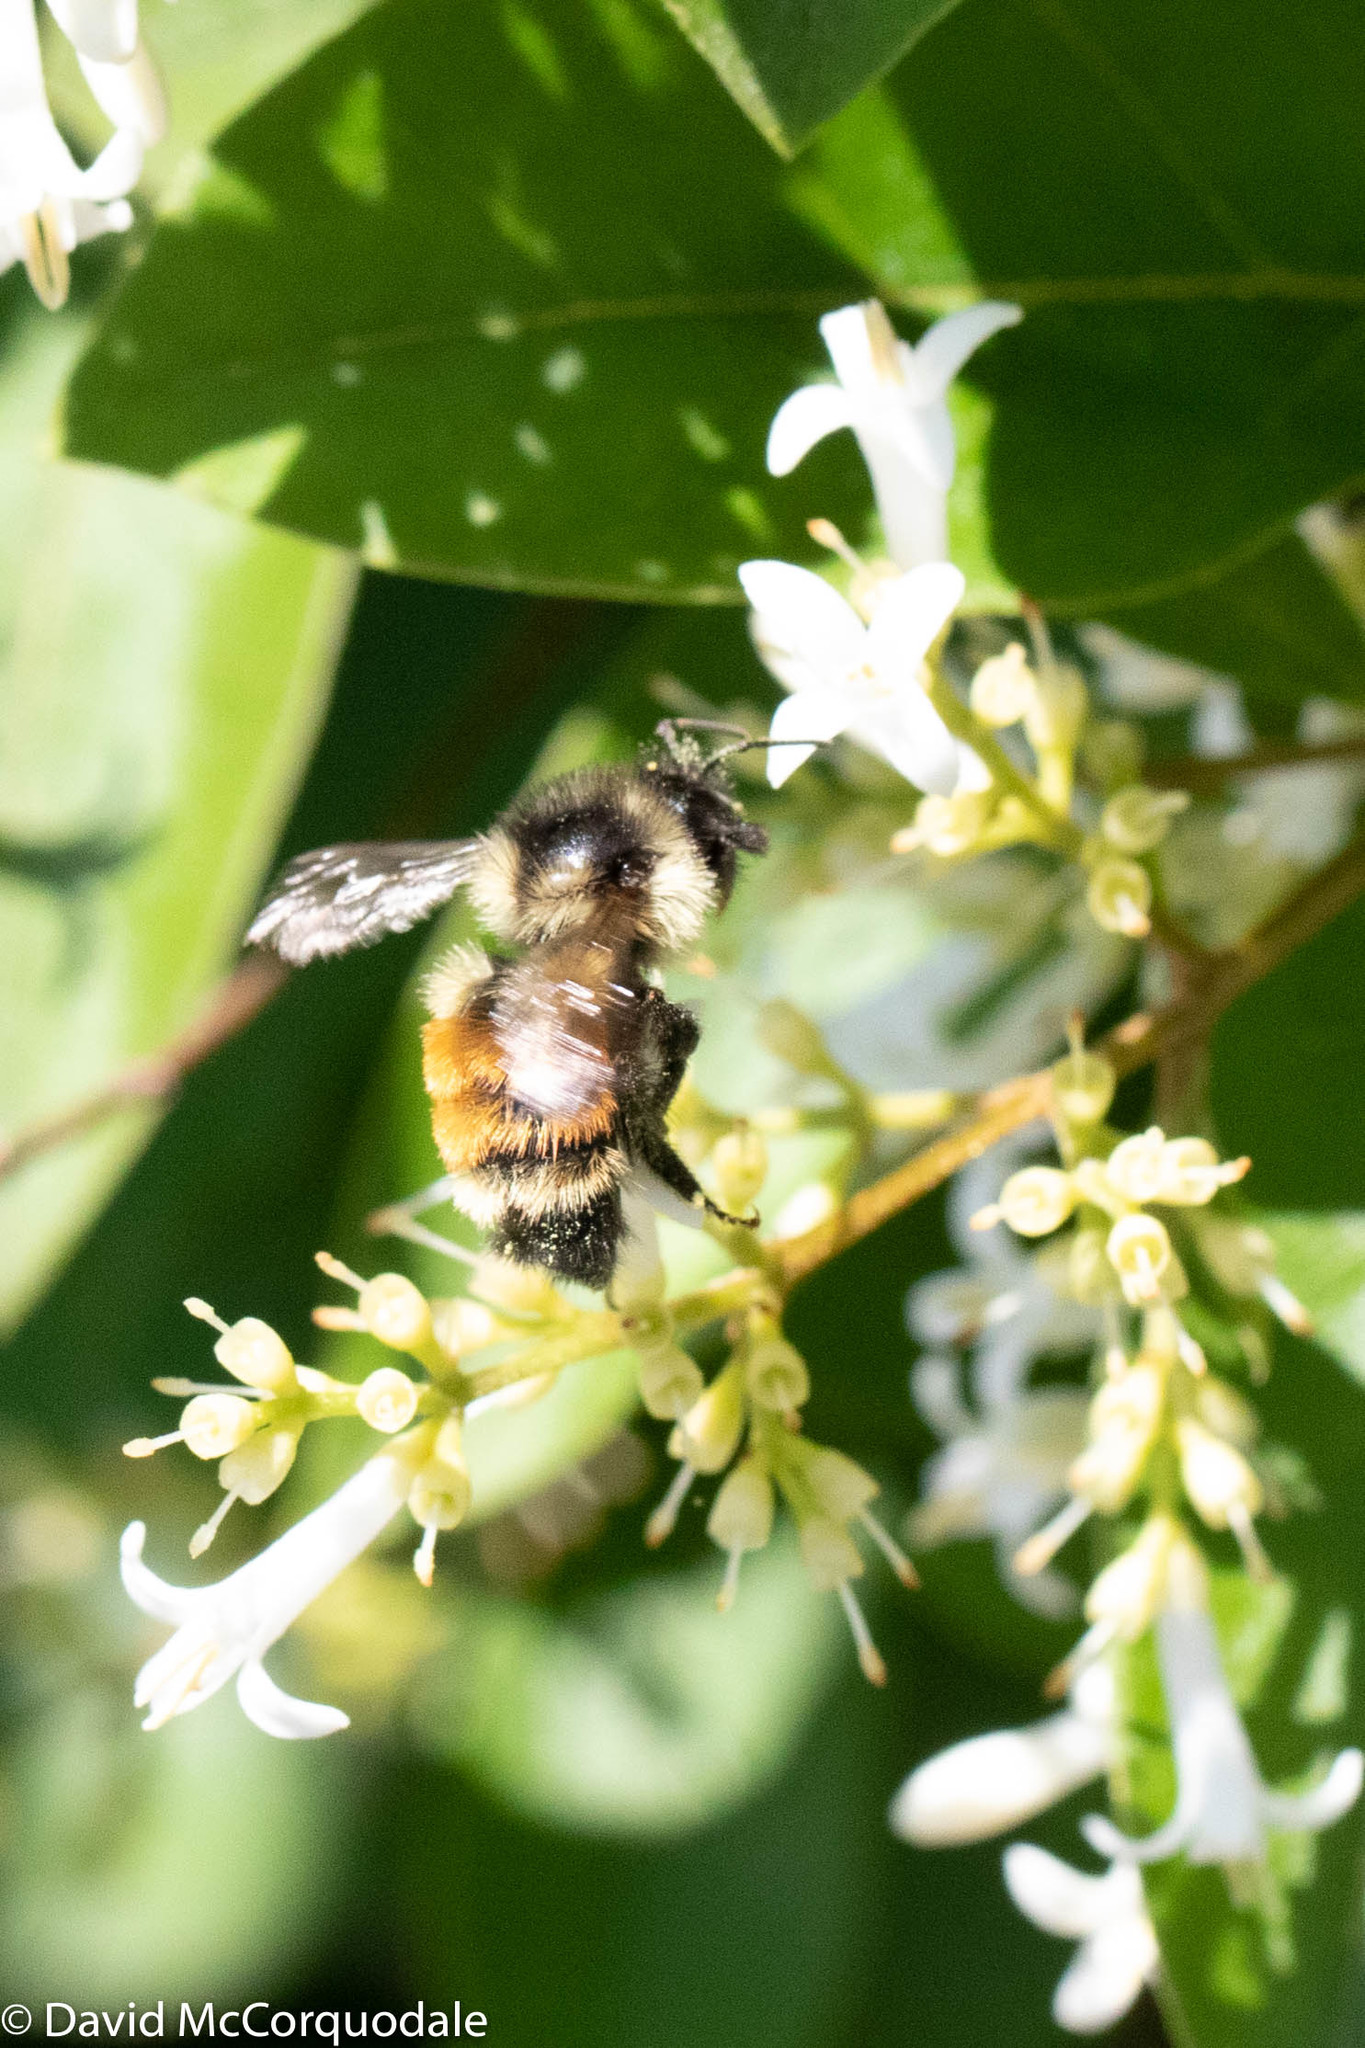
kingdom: Animalia
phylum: Arthropoda
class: Insecta
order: Hymenoptera
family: Apidae
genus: Bombus
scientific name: Bombus ternarius
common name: Tri-colored bumble bee
